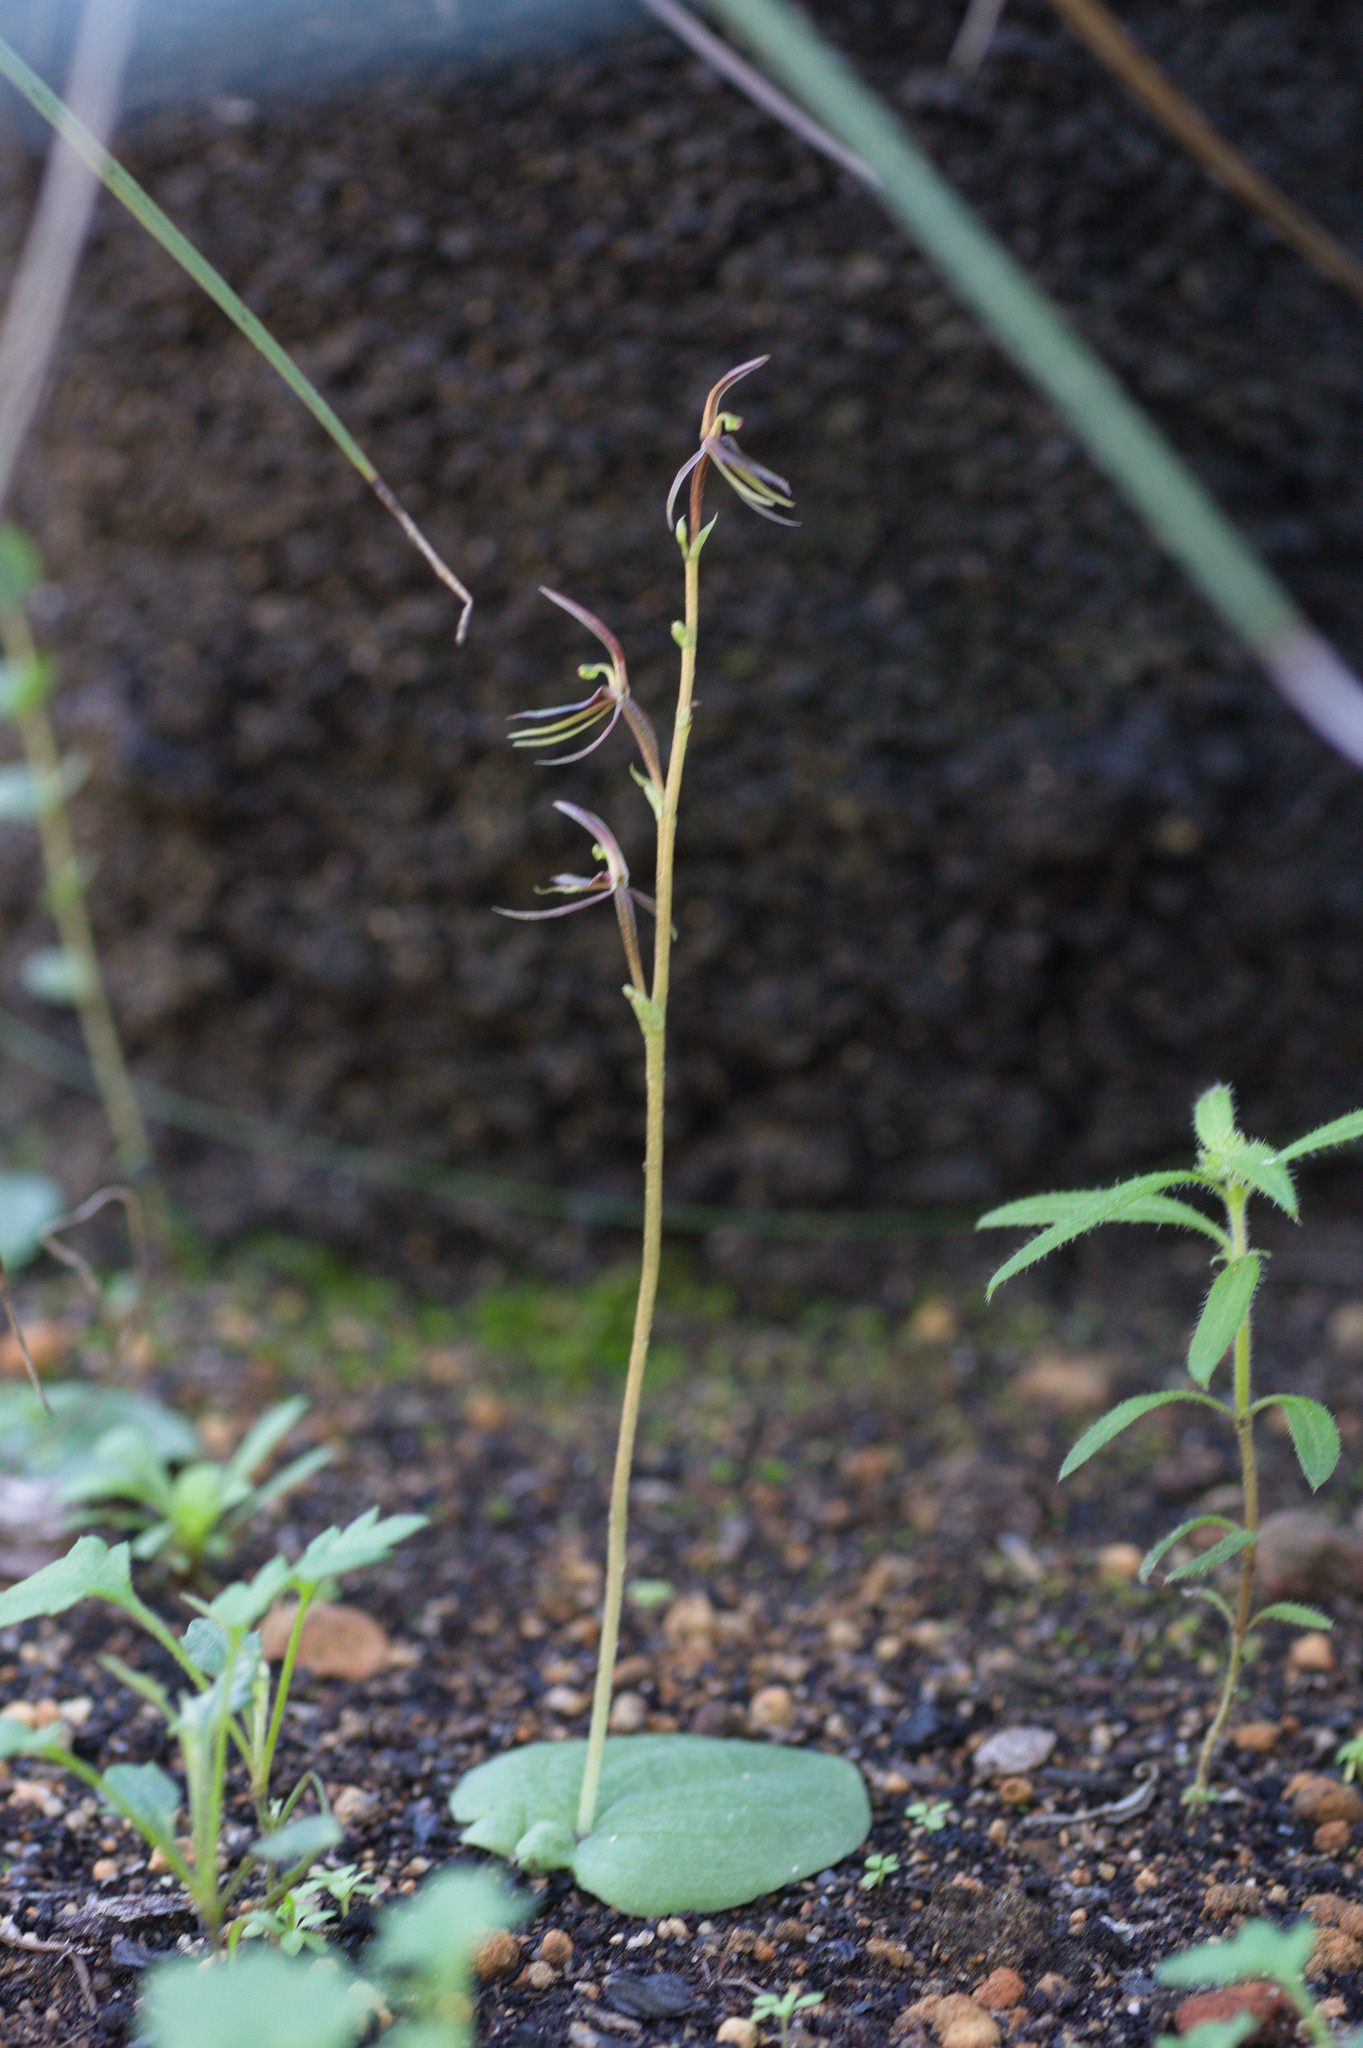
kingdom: Plantae
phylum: Tracheophyta
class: Liliopsida
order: Asparagales
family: Orchidaceae
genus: Cyrtostylis
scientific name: Cyrtostylis huegelii
